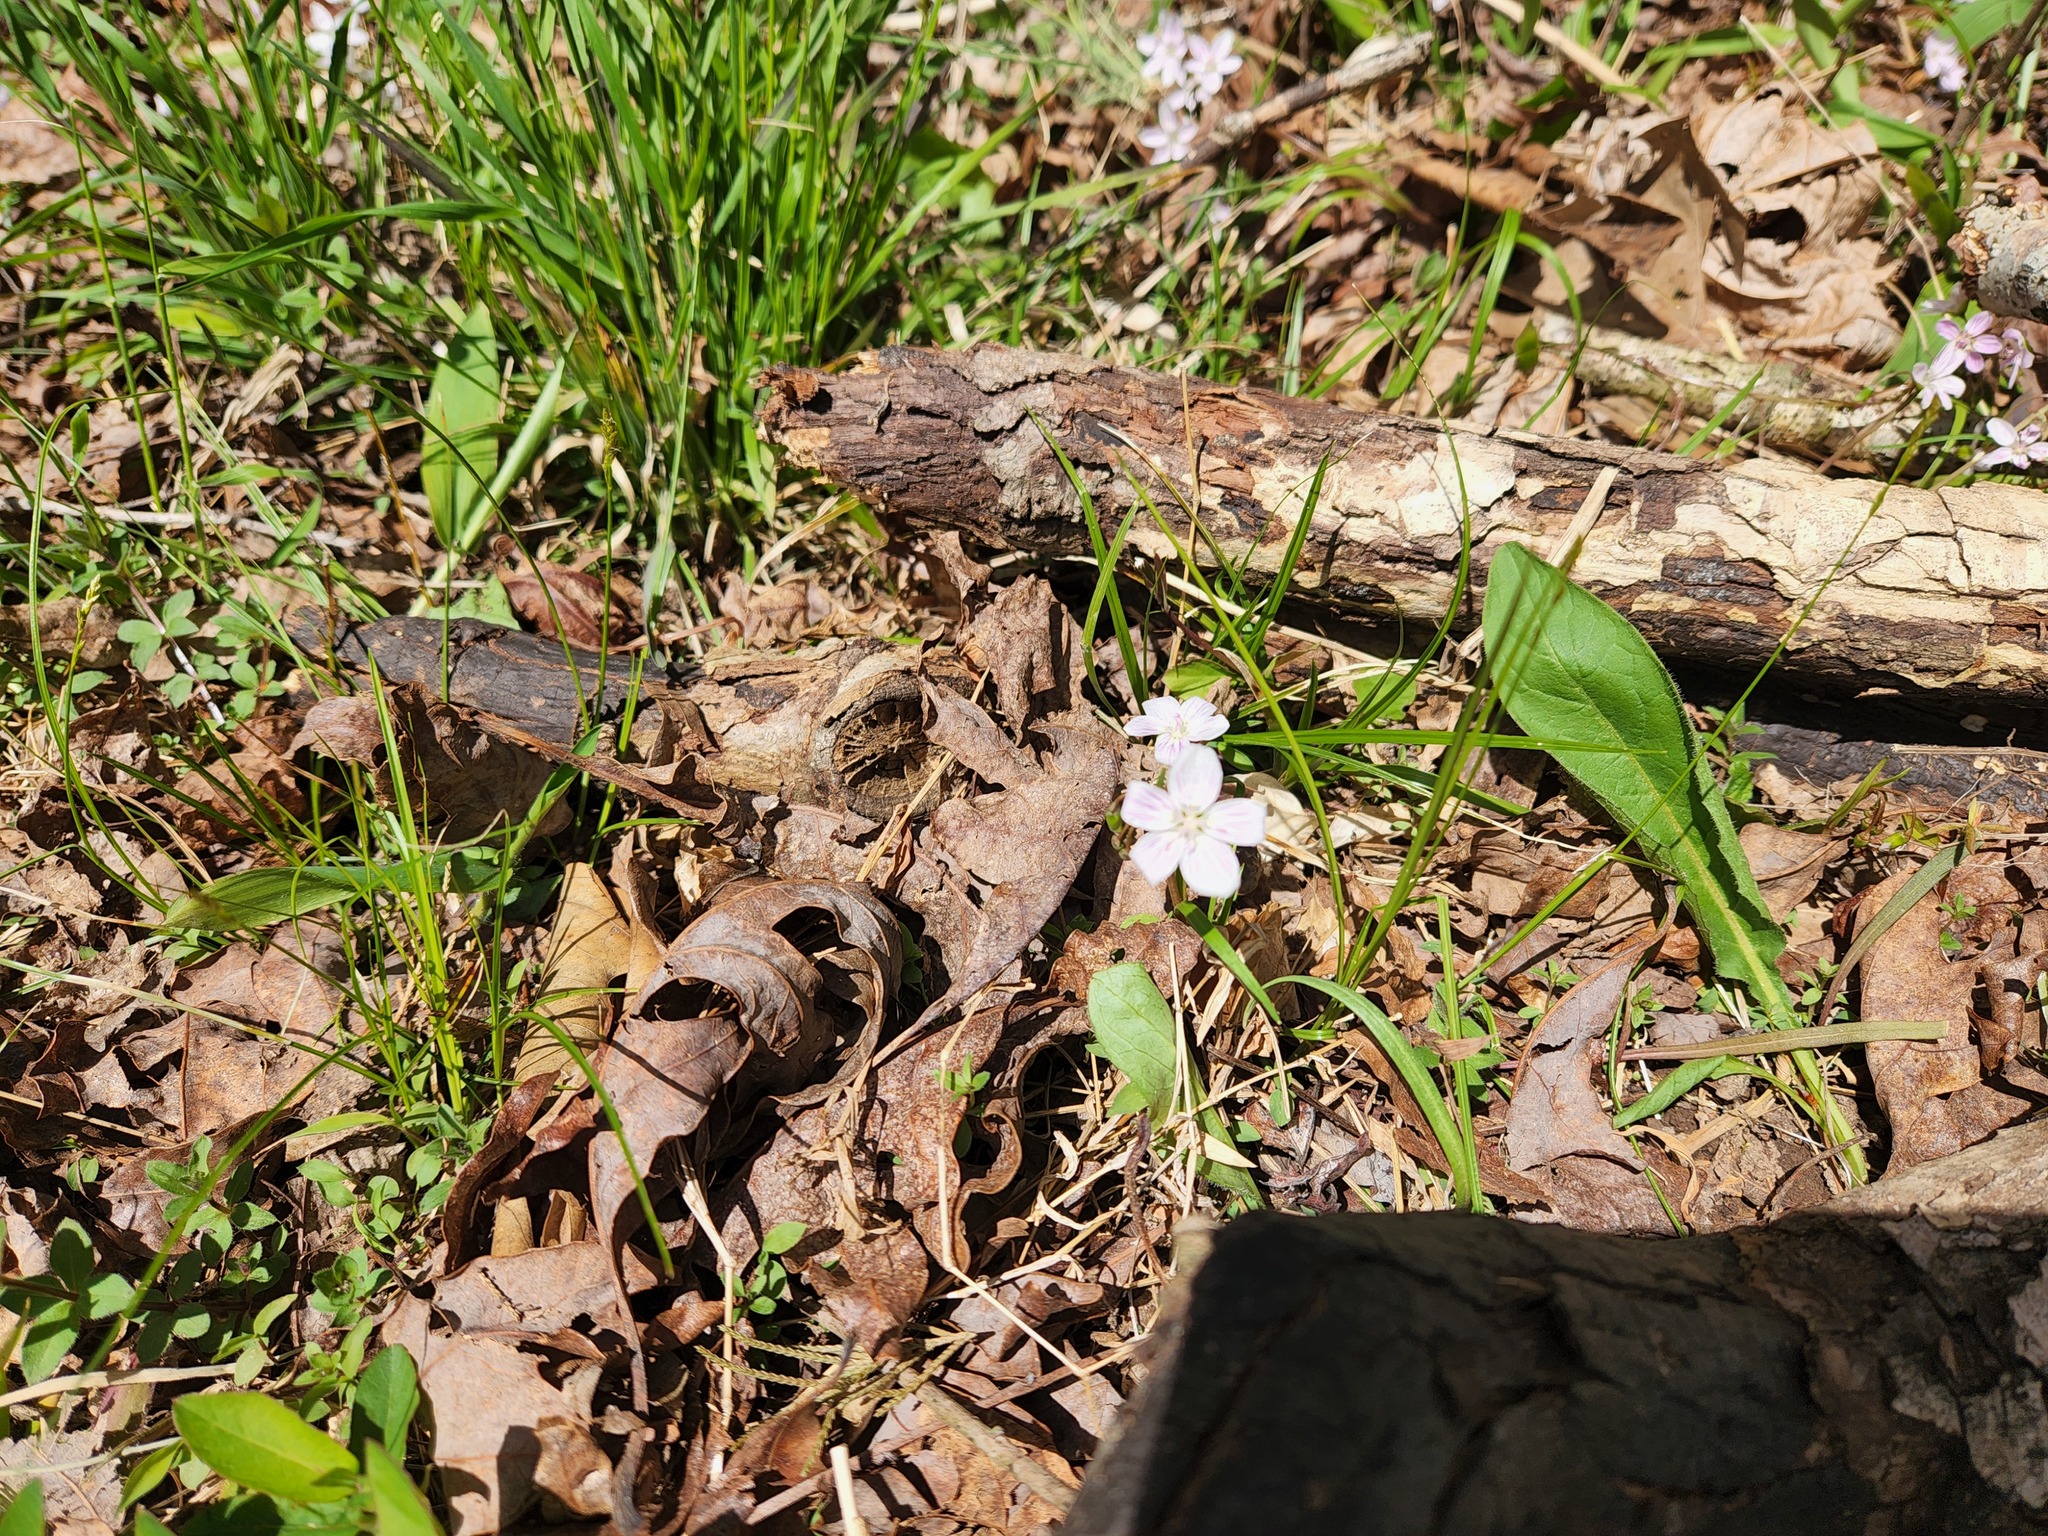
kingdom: Plantae
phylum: Tracheophyta
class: Magnoliopsida
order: Caryophyllales
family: Montiaceae
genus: Claytonia
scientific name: Claytonia virginica
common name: Virginia springbeauty
